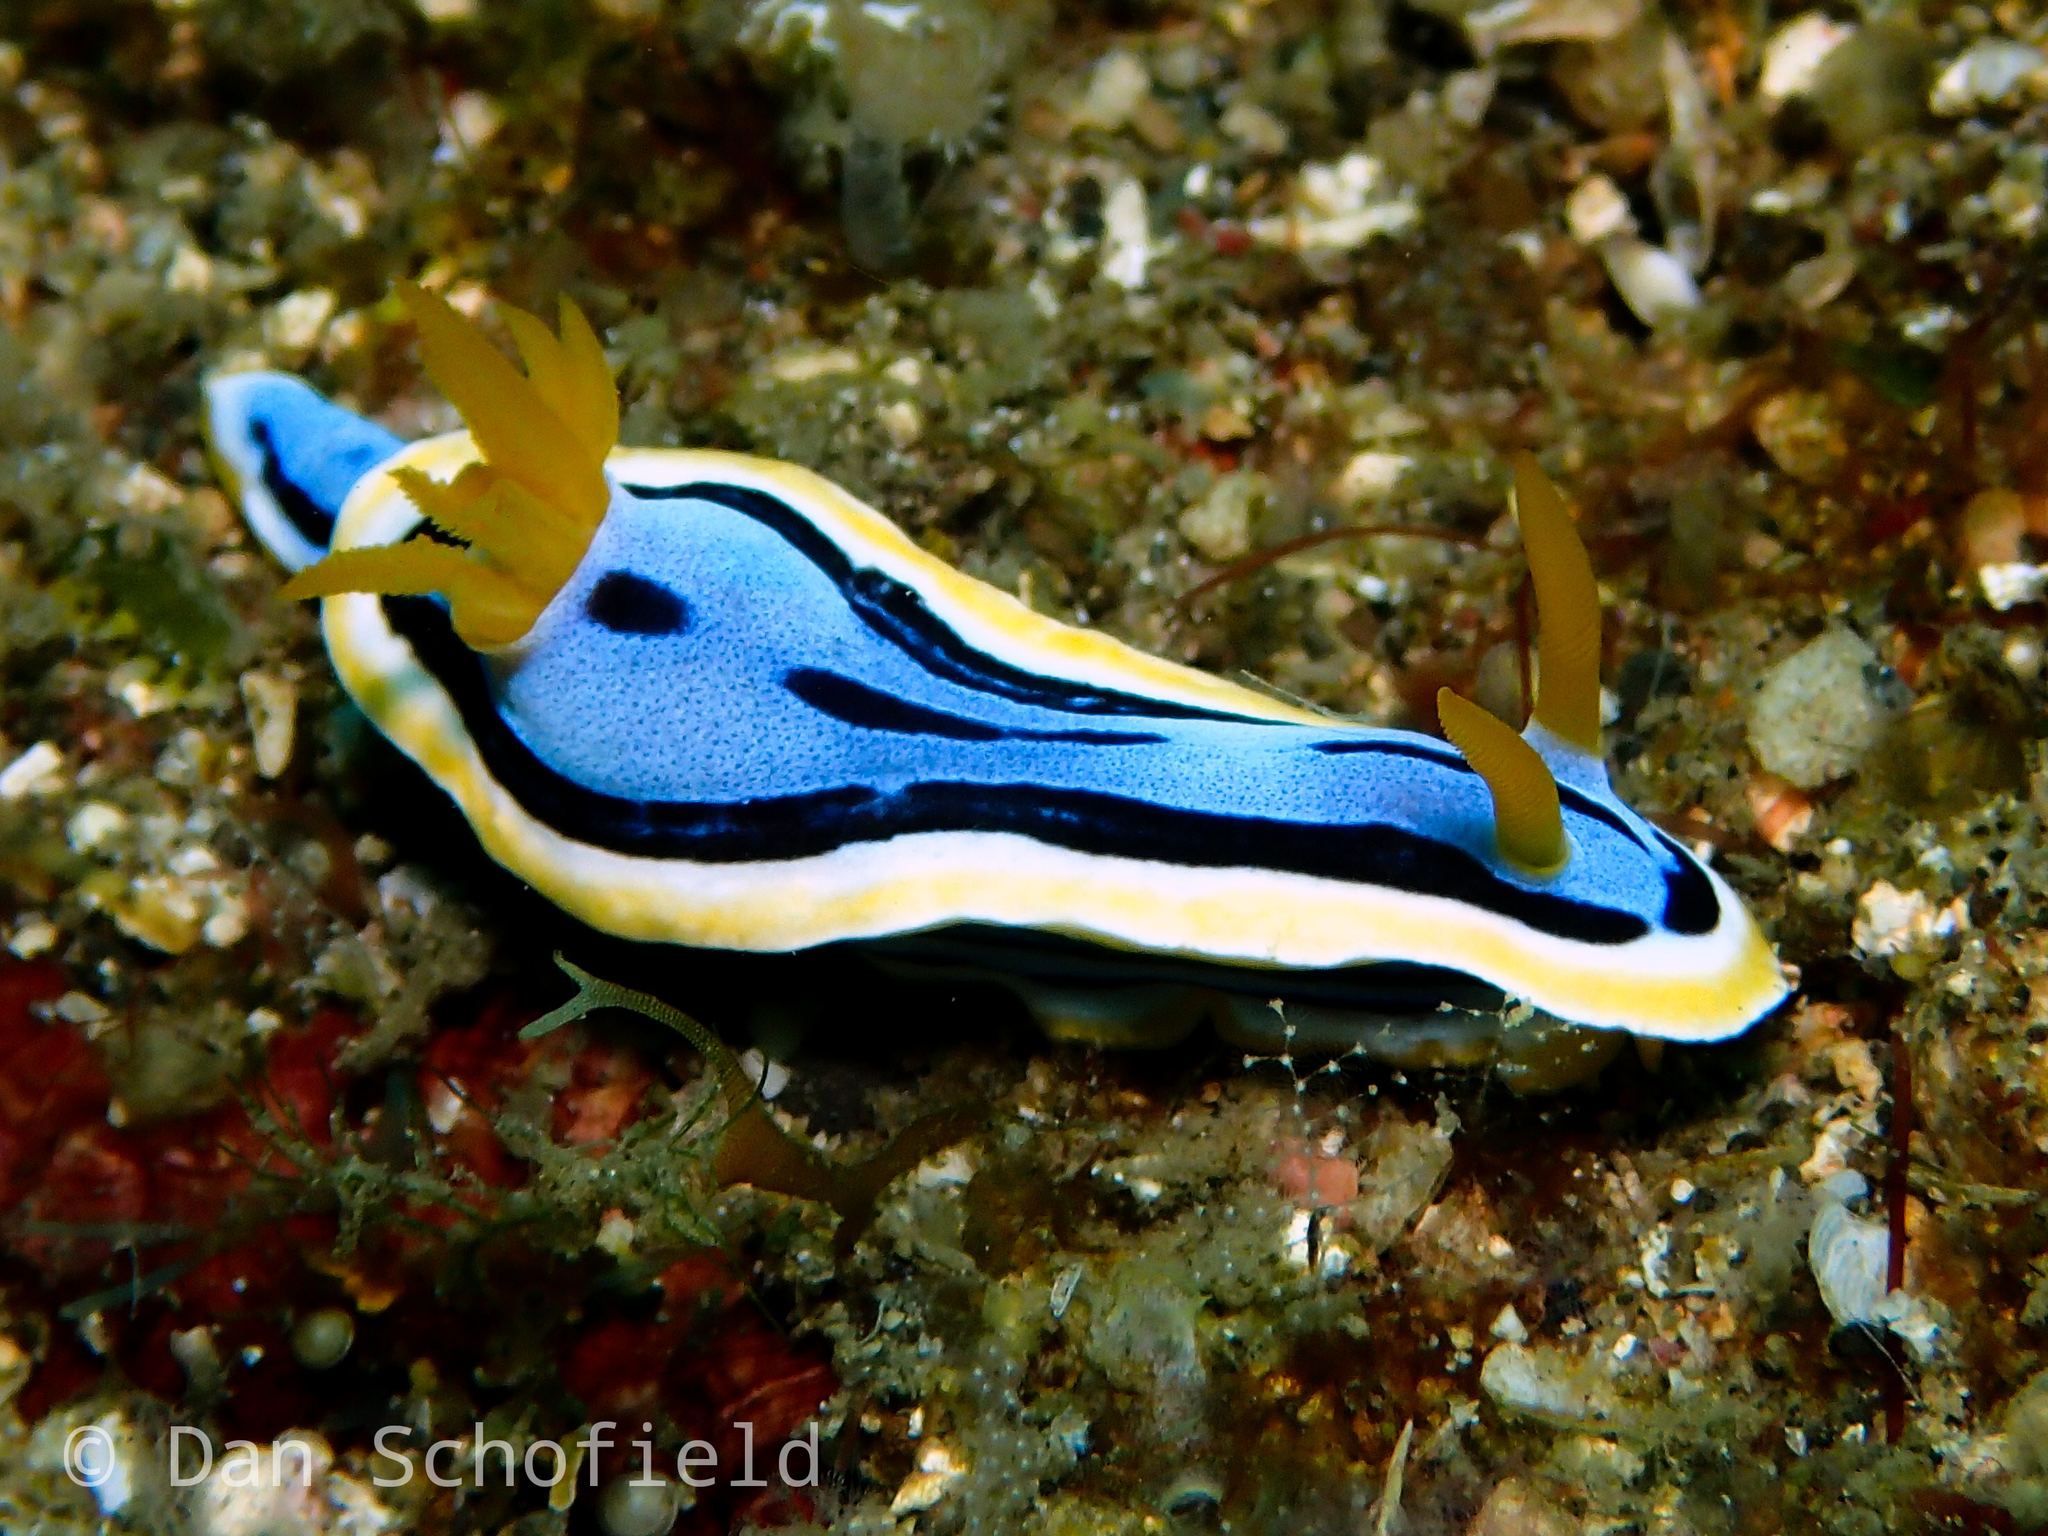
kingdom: Animalia
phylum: Mollusca
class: Gastropoda
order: Nudibranchia
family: Chromodorididae
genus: Chromodoris
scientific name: Chromodoris annae
